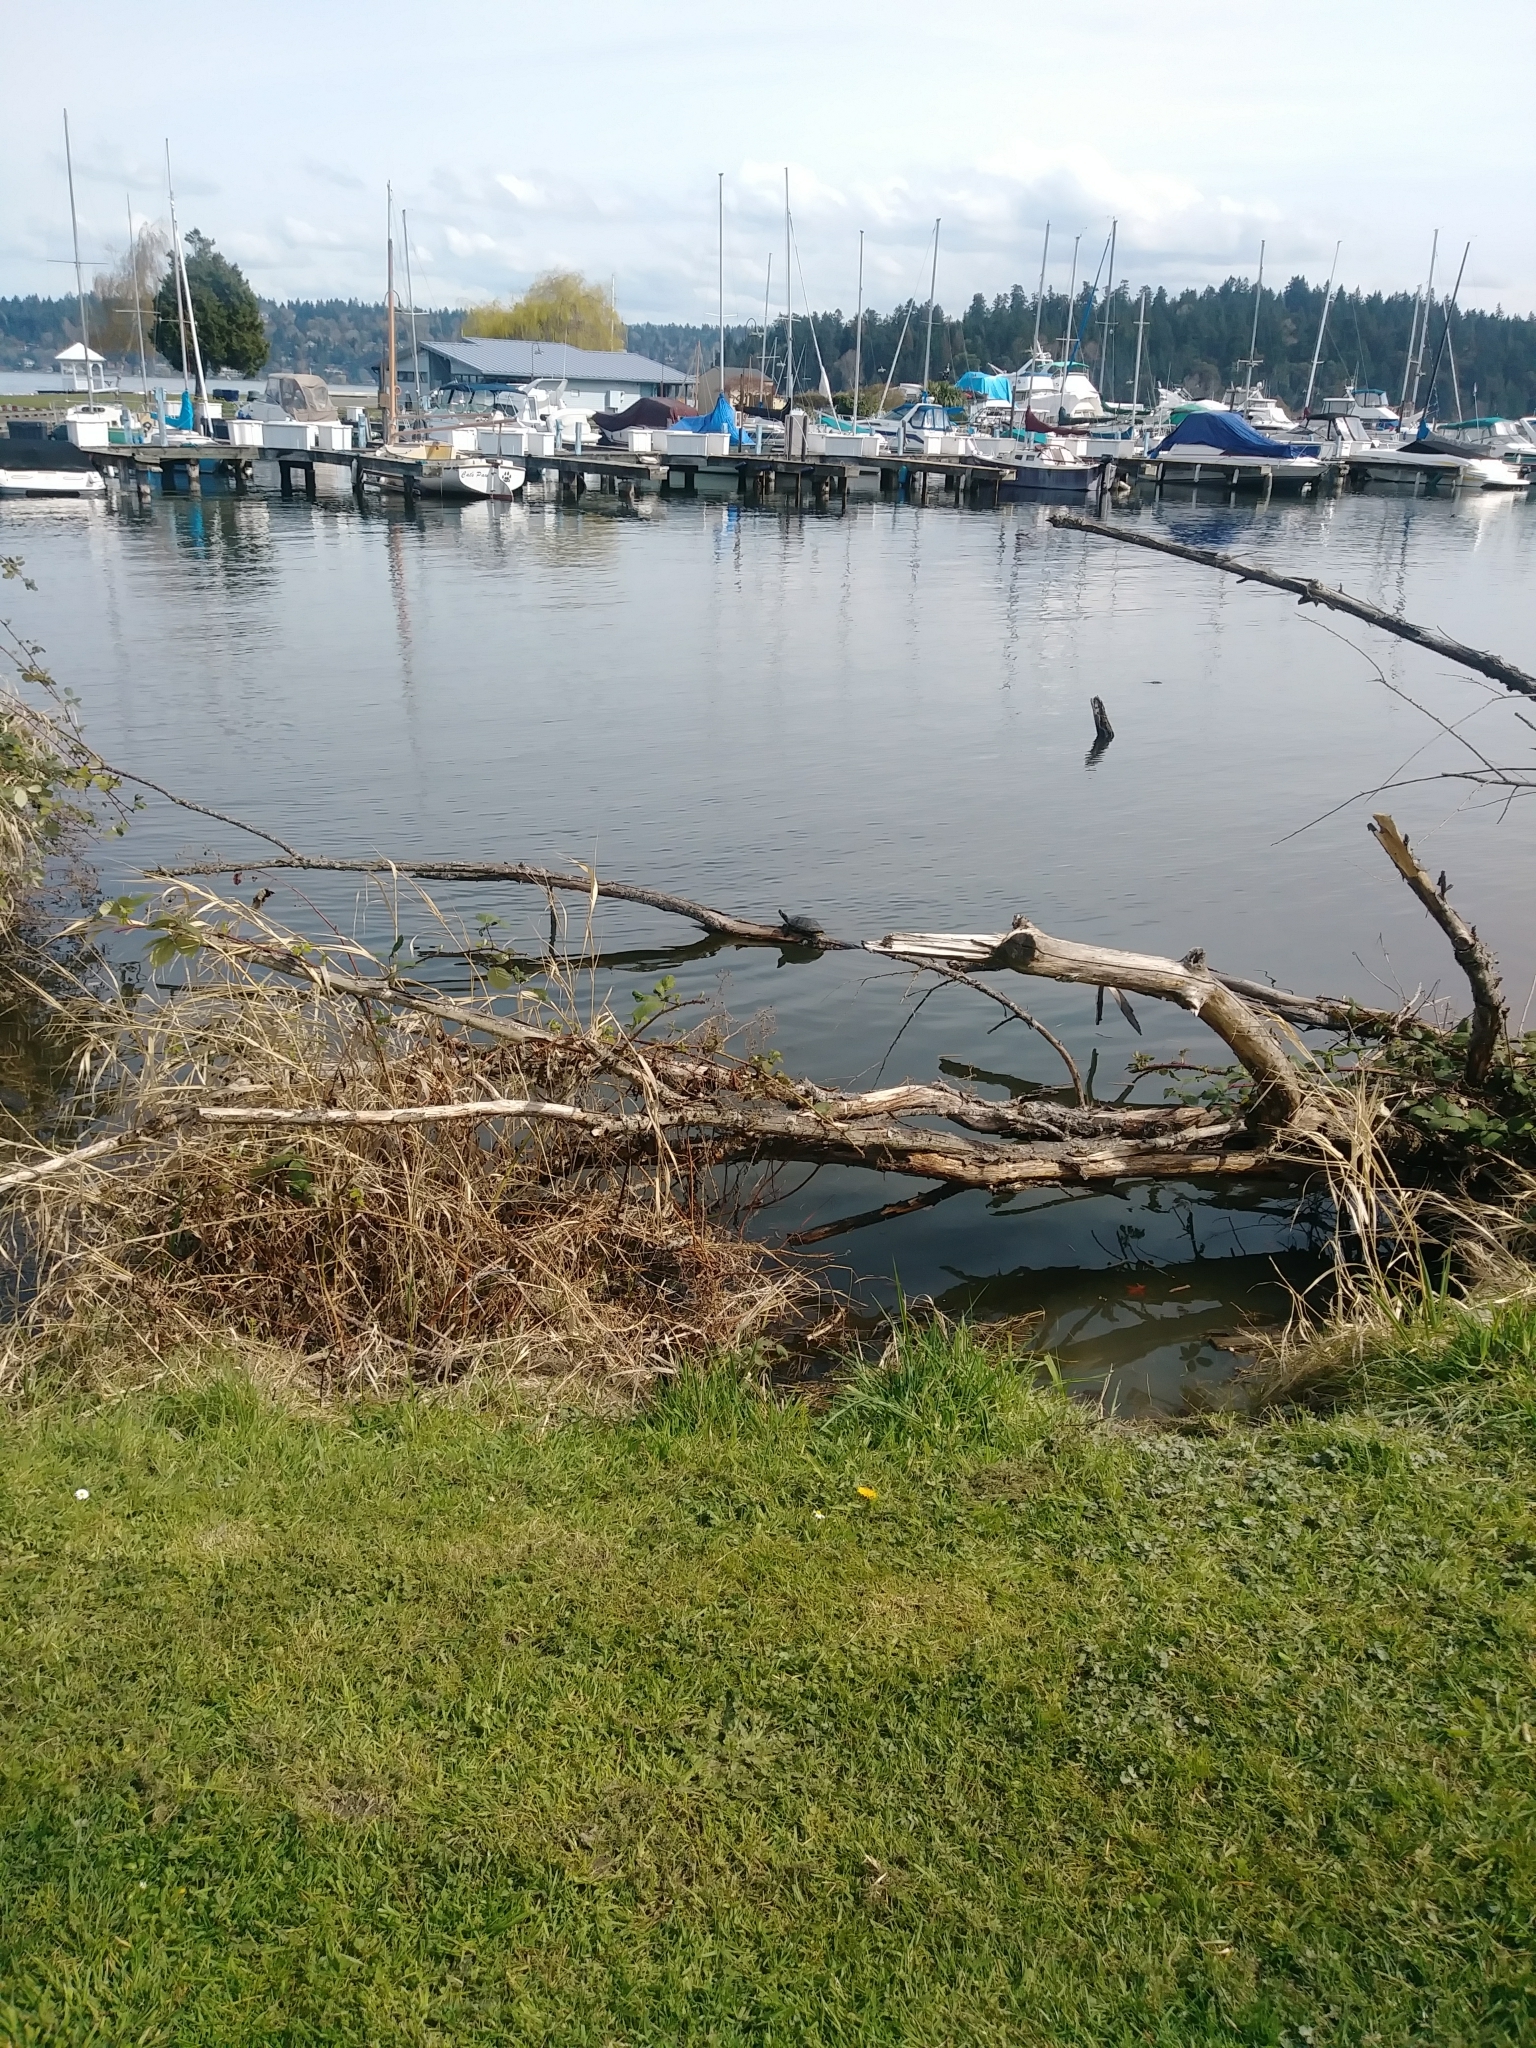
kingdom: Animalia
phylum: Chordata
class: Testudines
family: Emydidae
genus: Trachemys
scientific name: Trachemys scripta
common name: Slider
